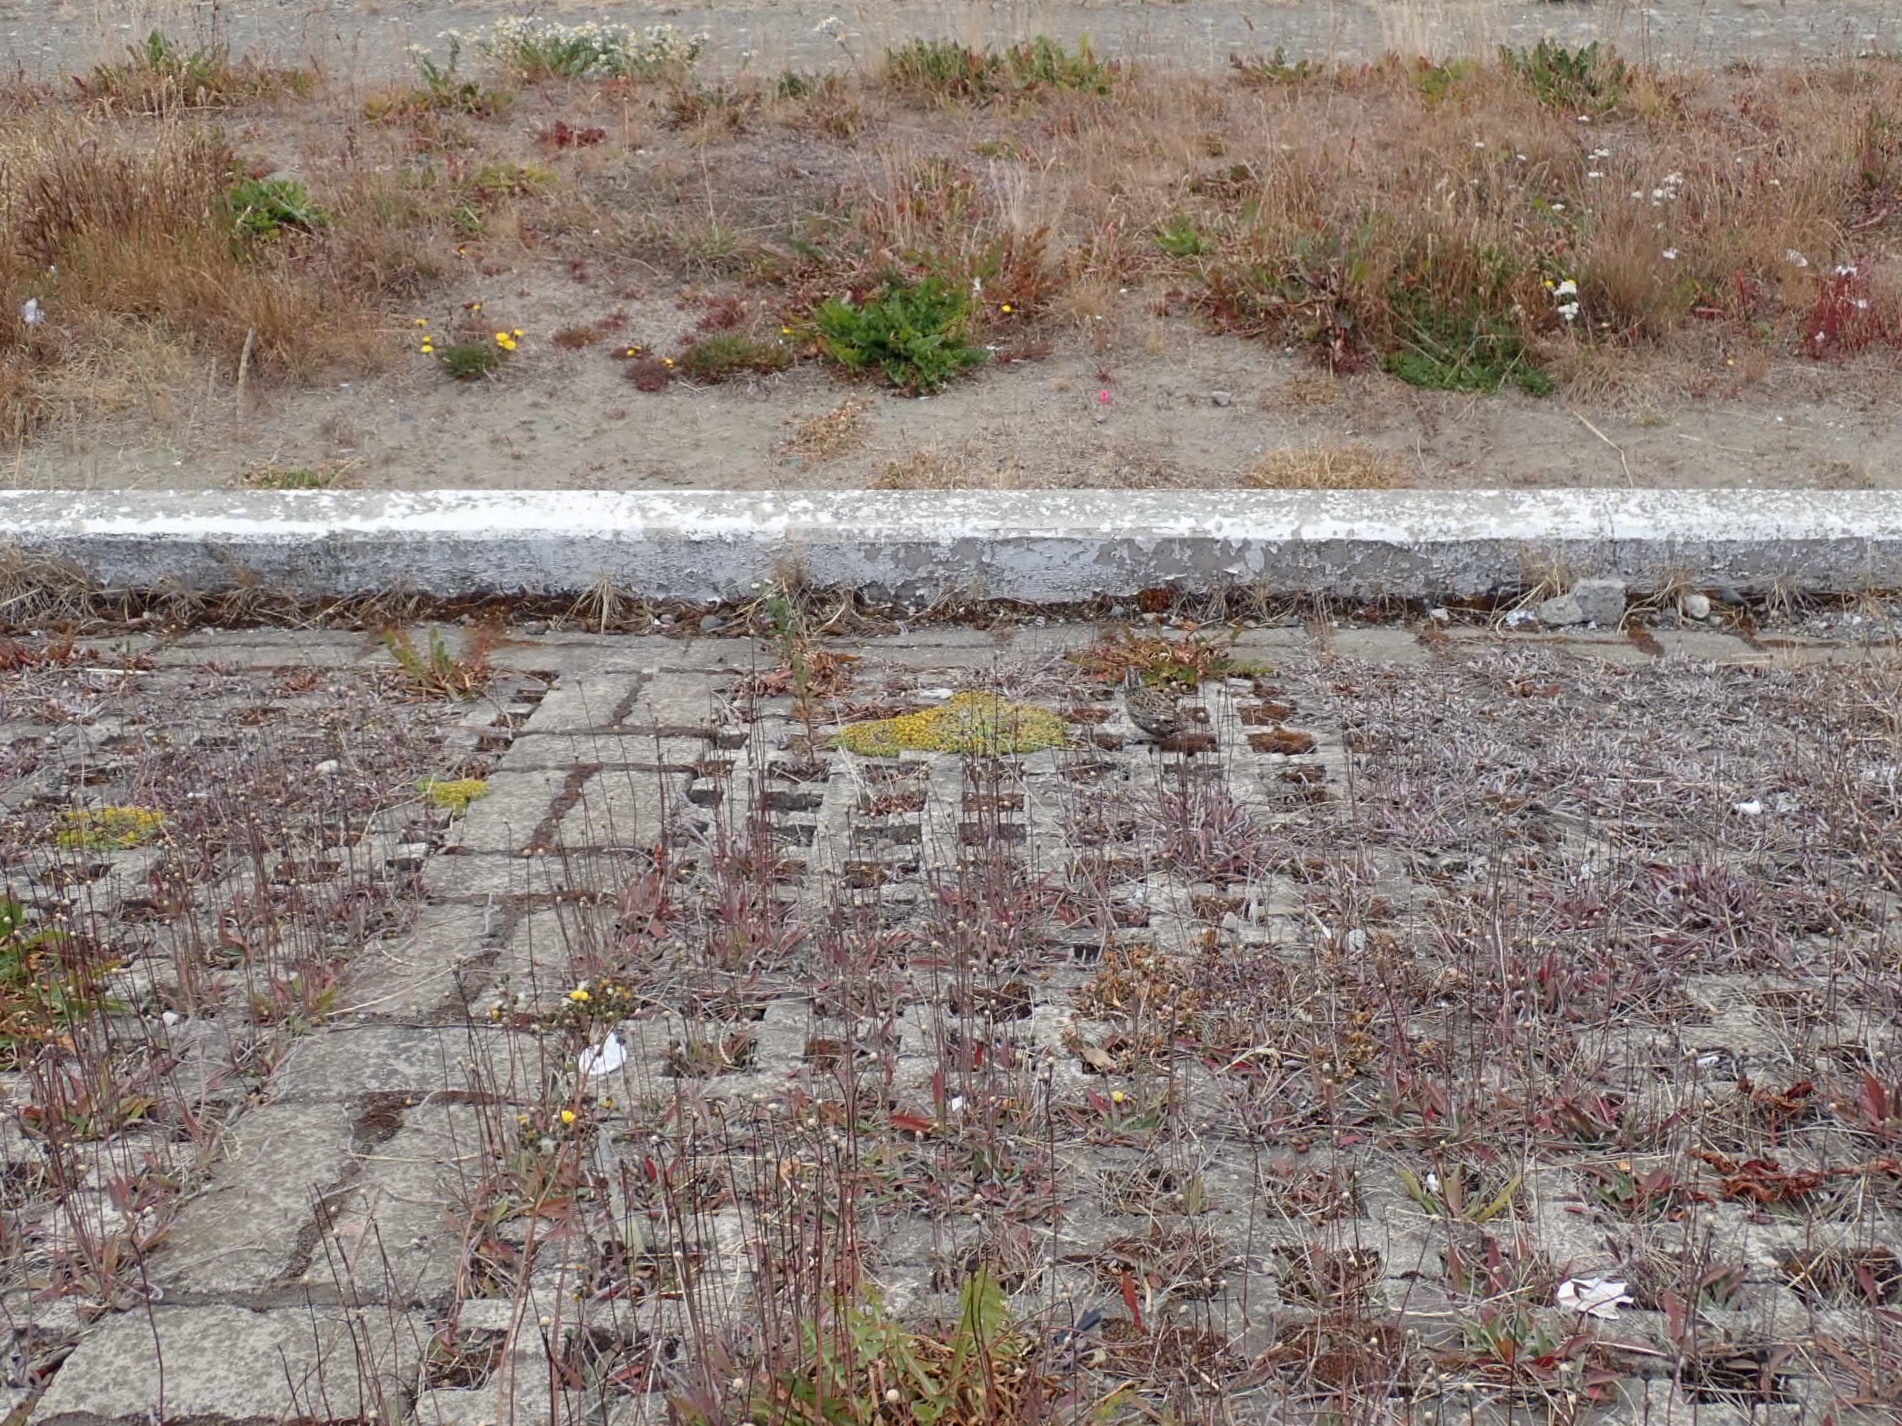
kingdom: Animalia
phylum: Chordata
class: Aves
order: Passeriformes
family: Icteridae
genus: Sturnella
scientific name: Sturnella loyca
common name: Long-tailed meadowlark
